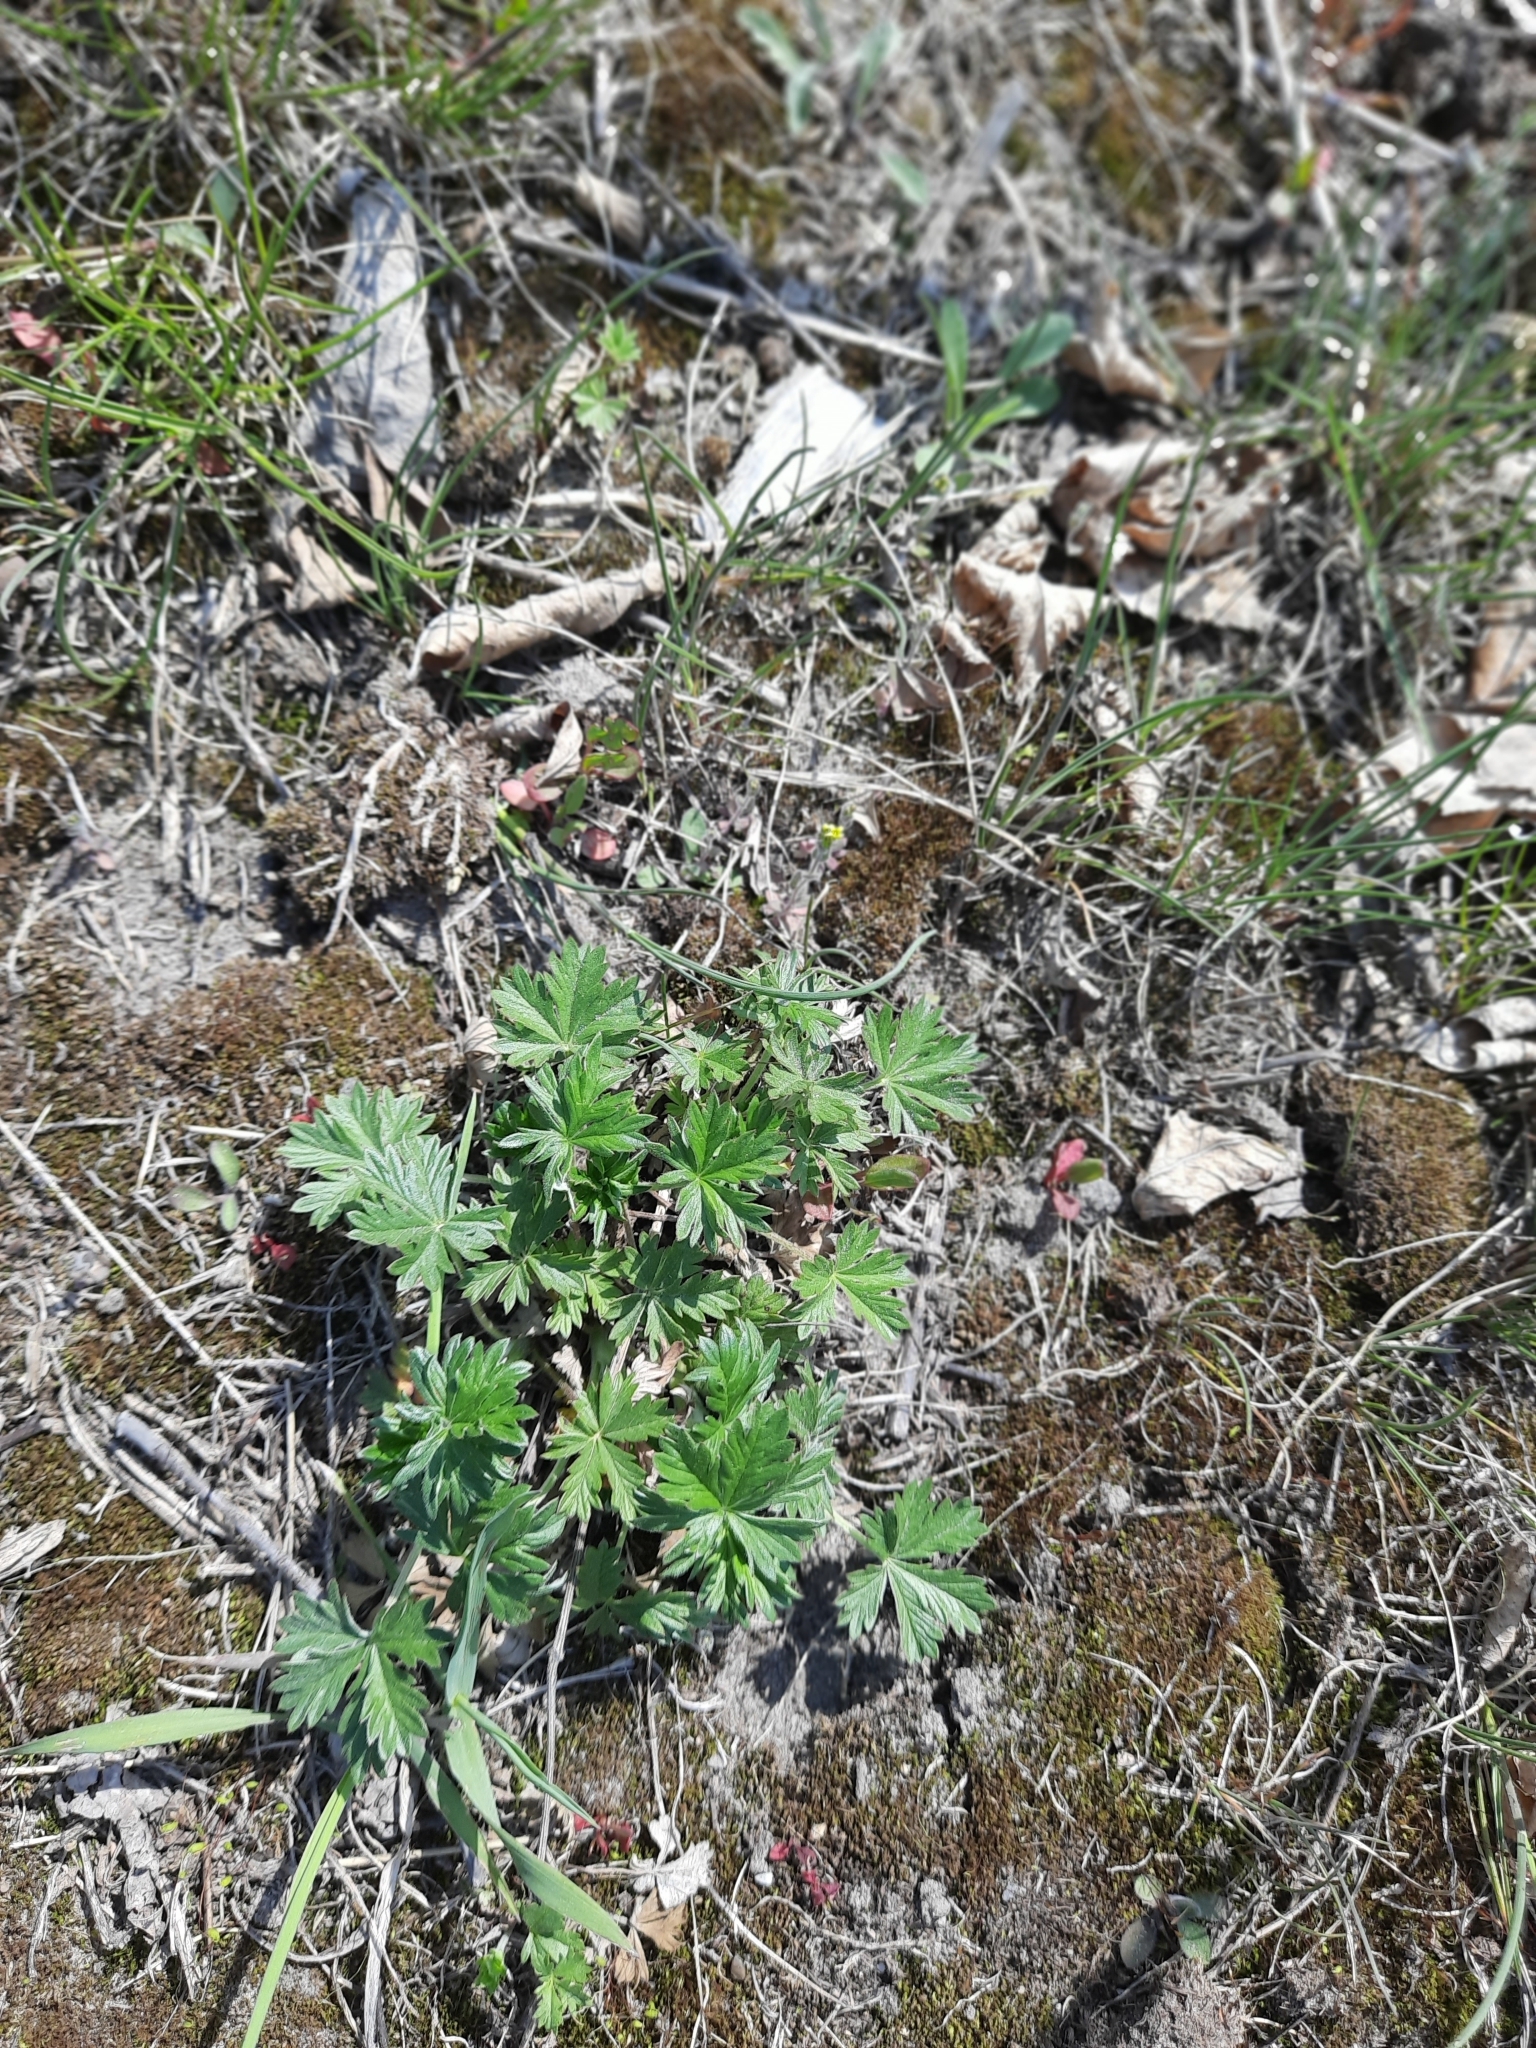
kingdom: Plantae
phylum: Tracheophyta
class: Magnoliopsida
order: Rosales
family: Rosaceae
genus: Potentilla
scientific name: Potentilla argentea
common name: Hoary cinquefoil
